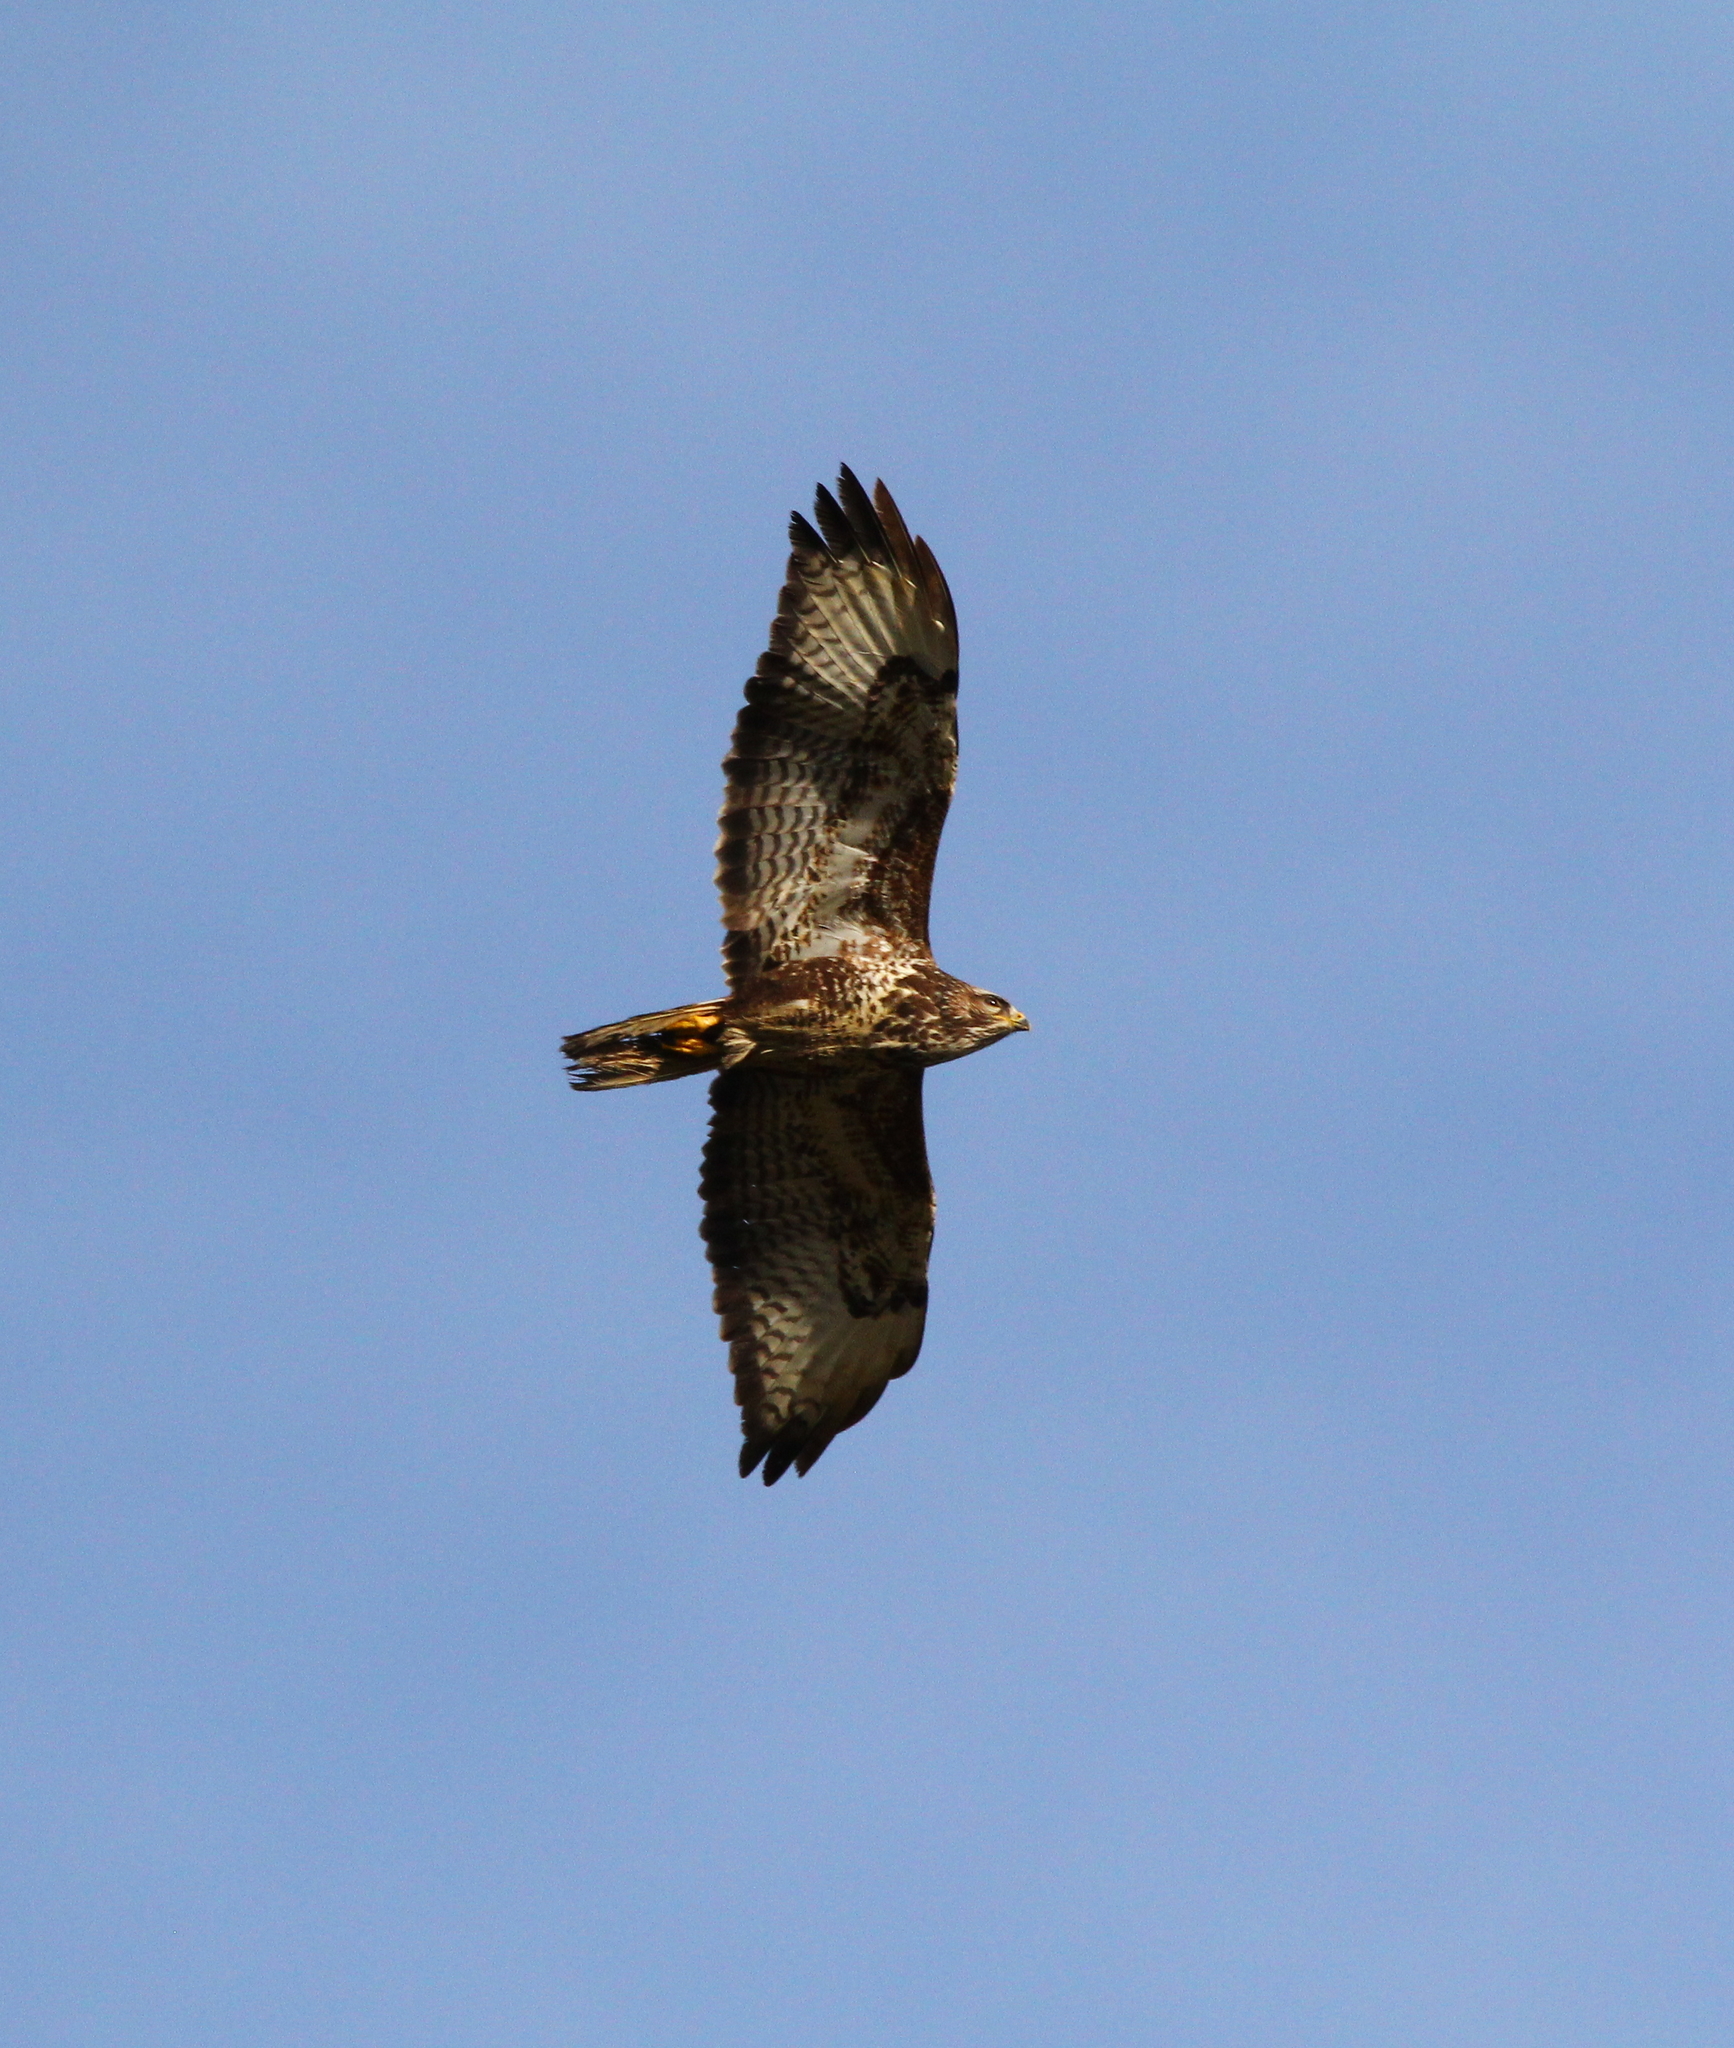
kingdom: Animalia
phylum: Chordata
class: Aves
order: Accipitriformes
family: Accipitridae
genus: Buteo
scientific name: Buteo buteo
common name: Common buzzard
